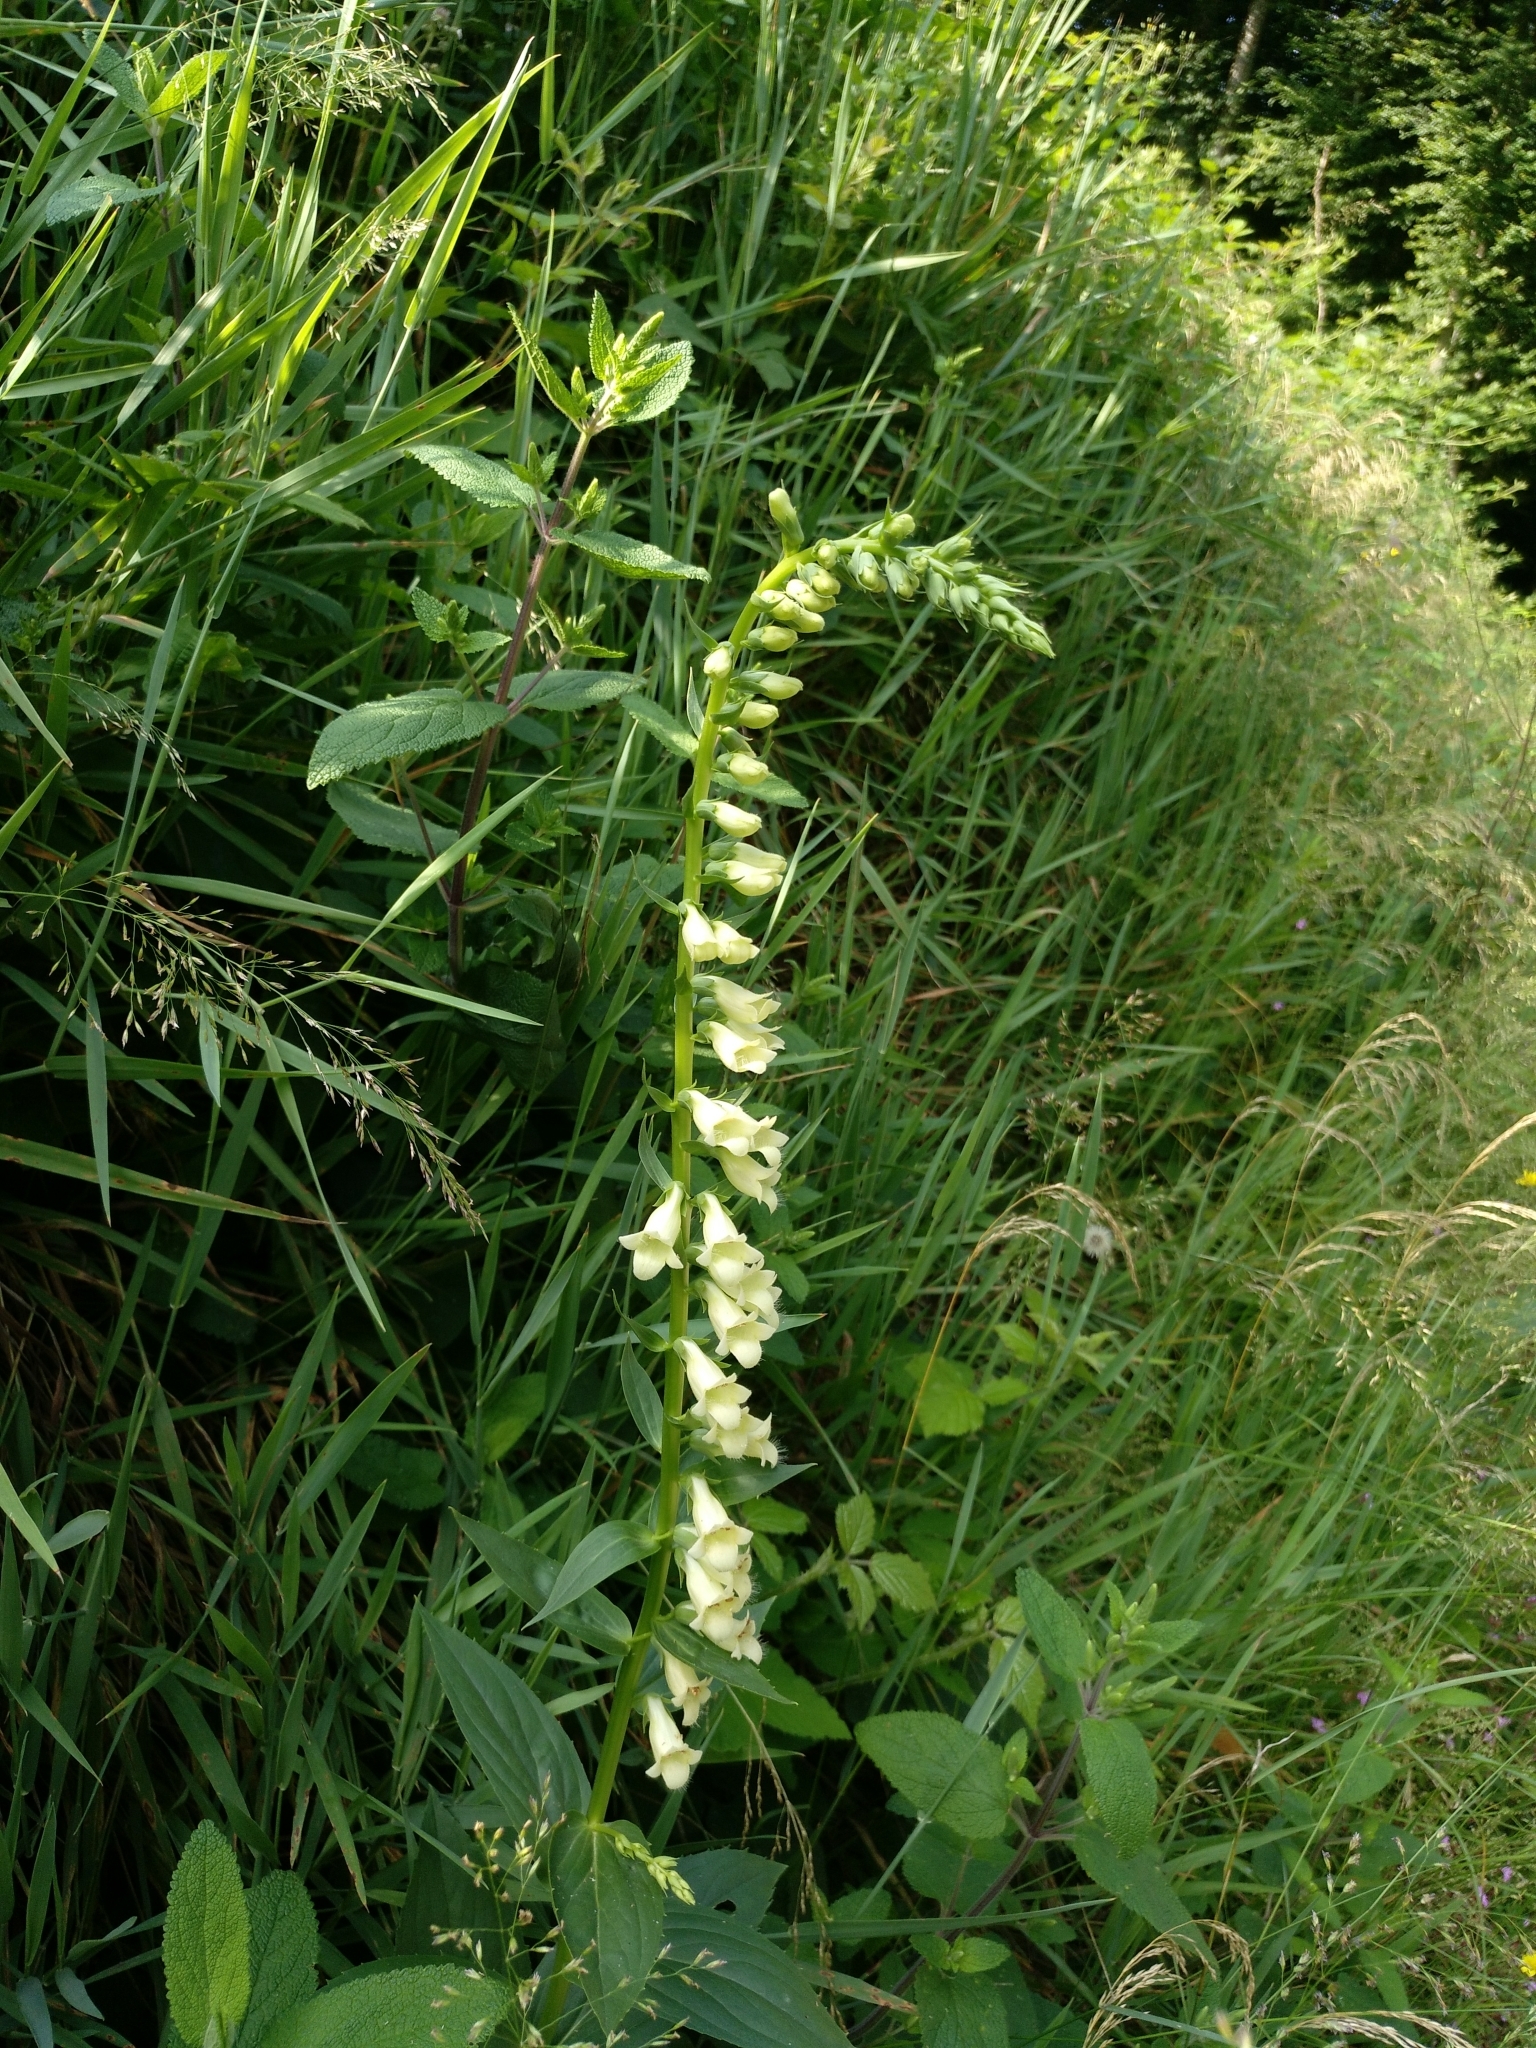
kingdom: Plantae
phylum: Tracheophyta
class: Magnoliopsida
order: Lamiales
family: Plantaginaceae
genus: Digitalis
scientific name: Digitalis lutea
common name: Straw foxglove
